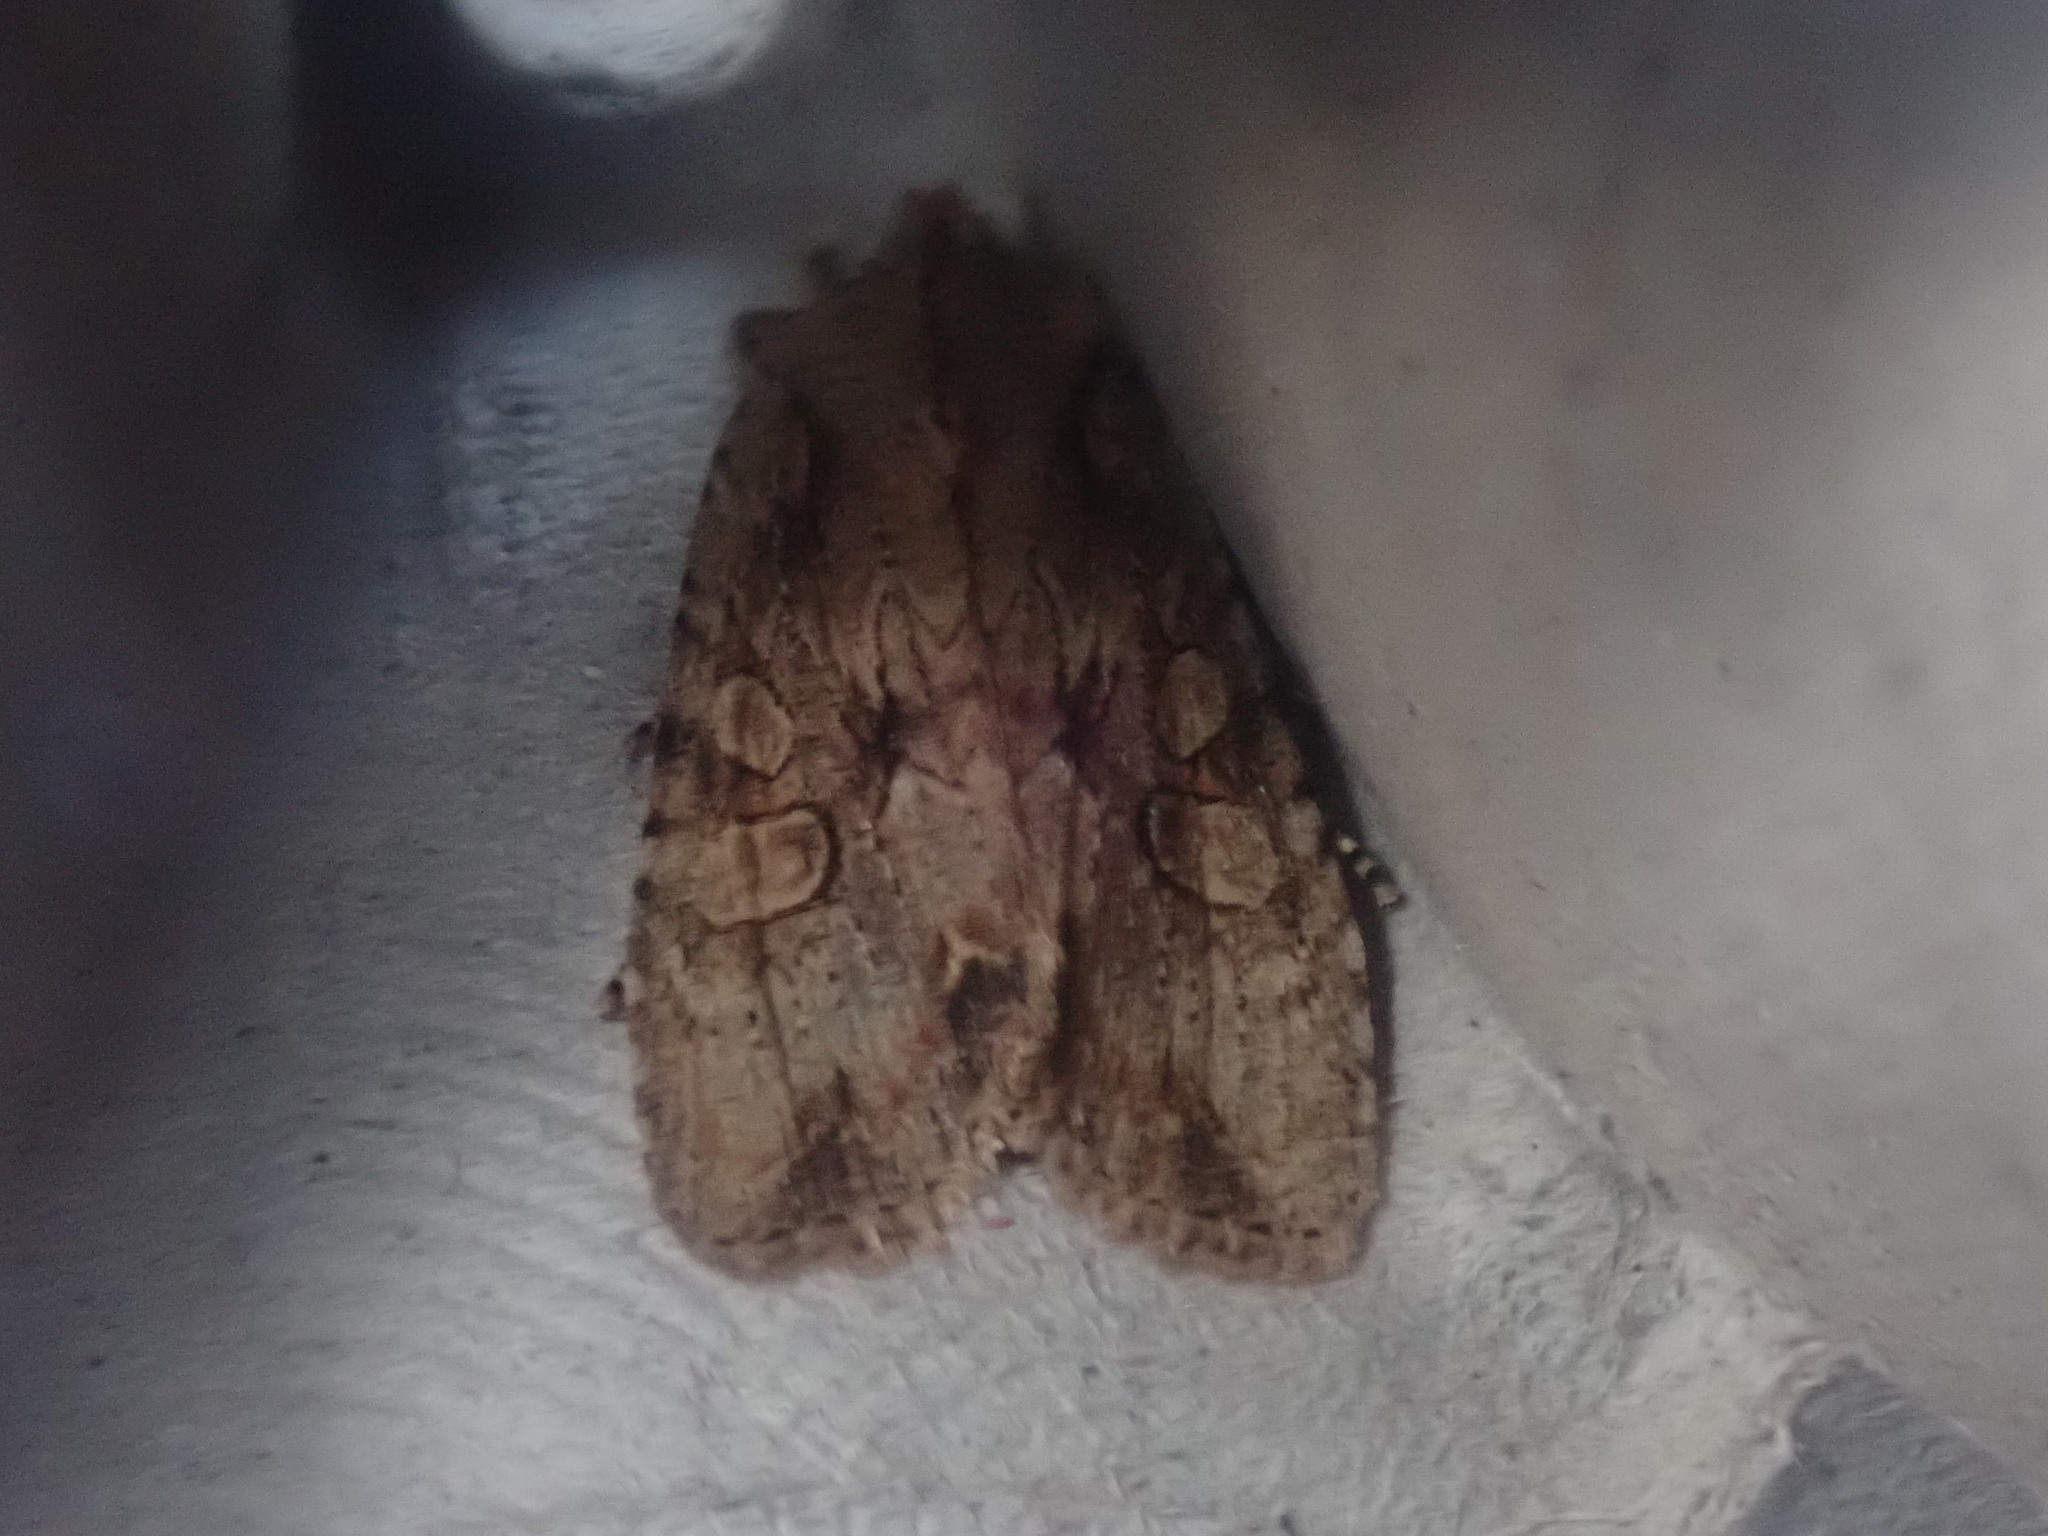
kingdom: Animalia
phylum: Arthropoda
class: Insecta
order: Lepidoptera
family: Noctuidae
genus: Lithophane
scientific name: Lithophane disposita
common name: Dashed gray pinion moth
